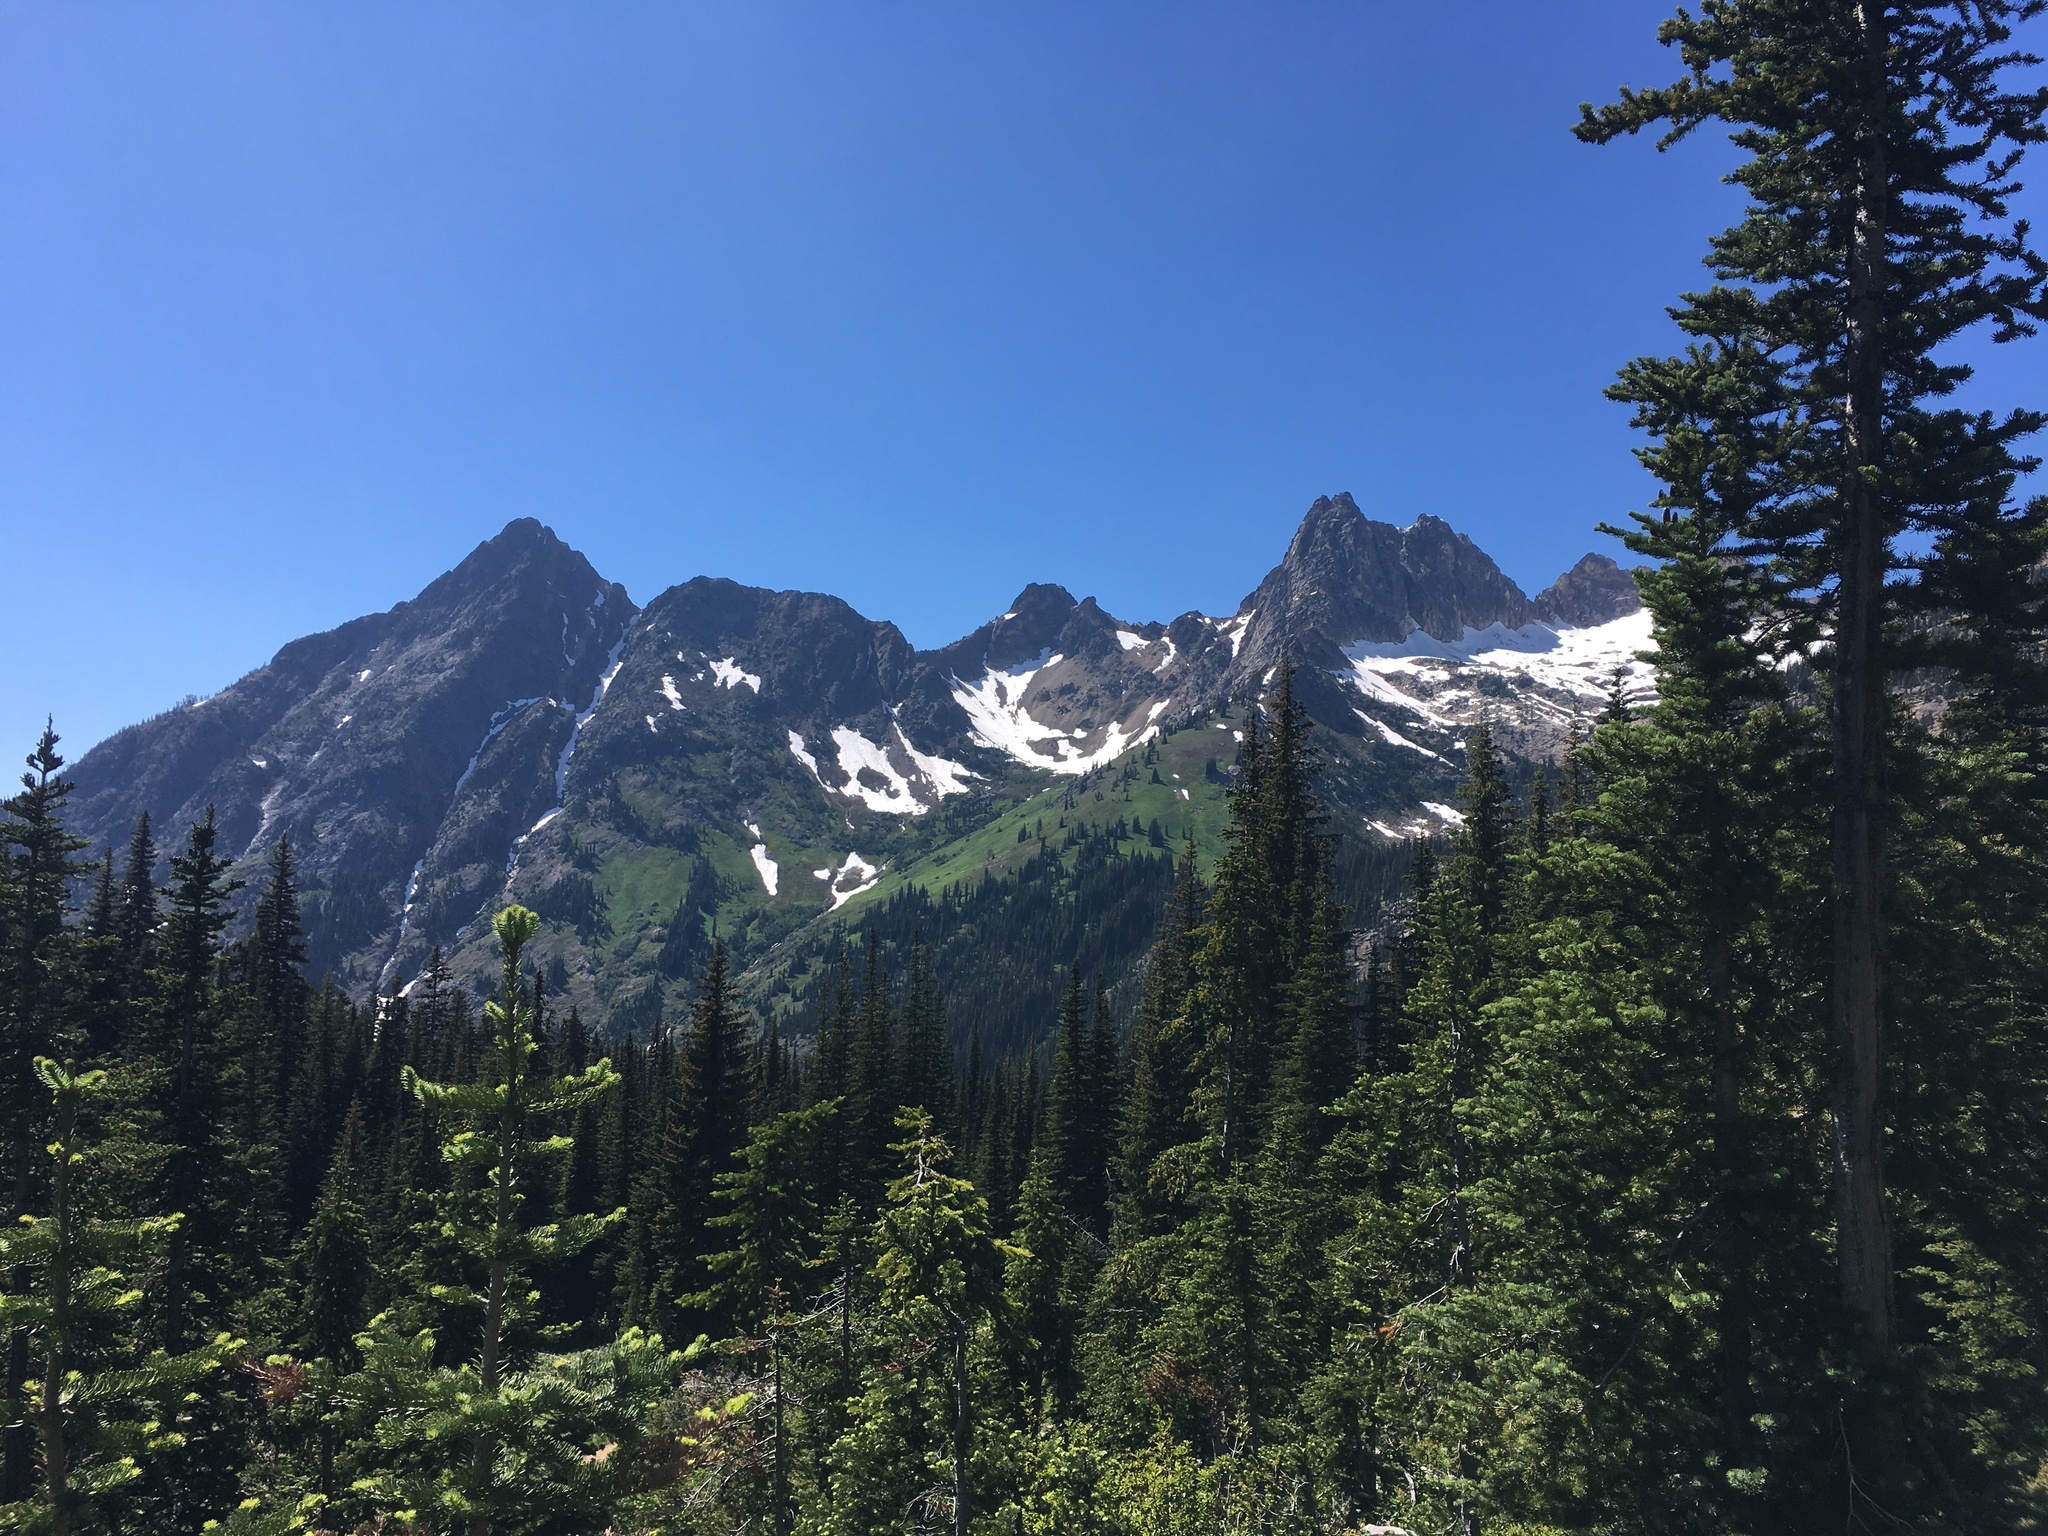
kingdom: Plantae
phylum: Tracheophyta
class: Pinopsida
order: Pinales
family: Pinaceae
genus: Abies
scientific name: Abies lasiocarpa
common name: Subalpine fir
